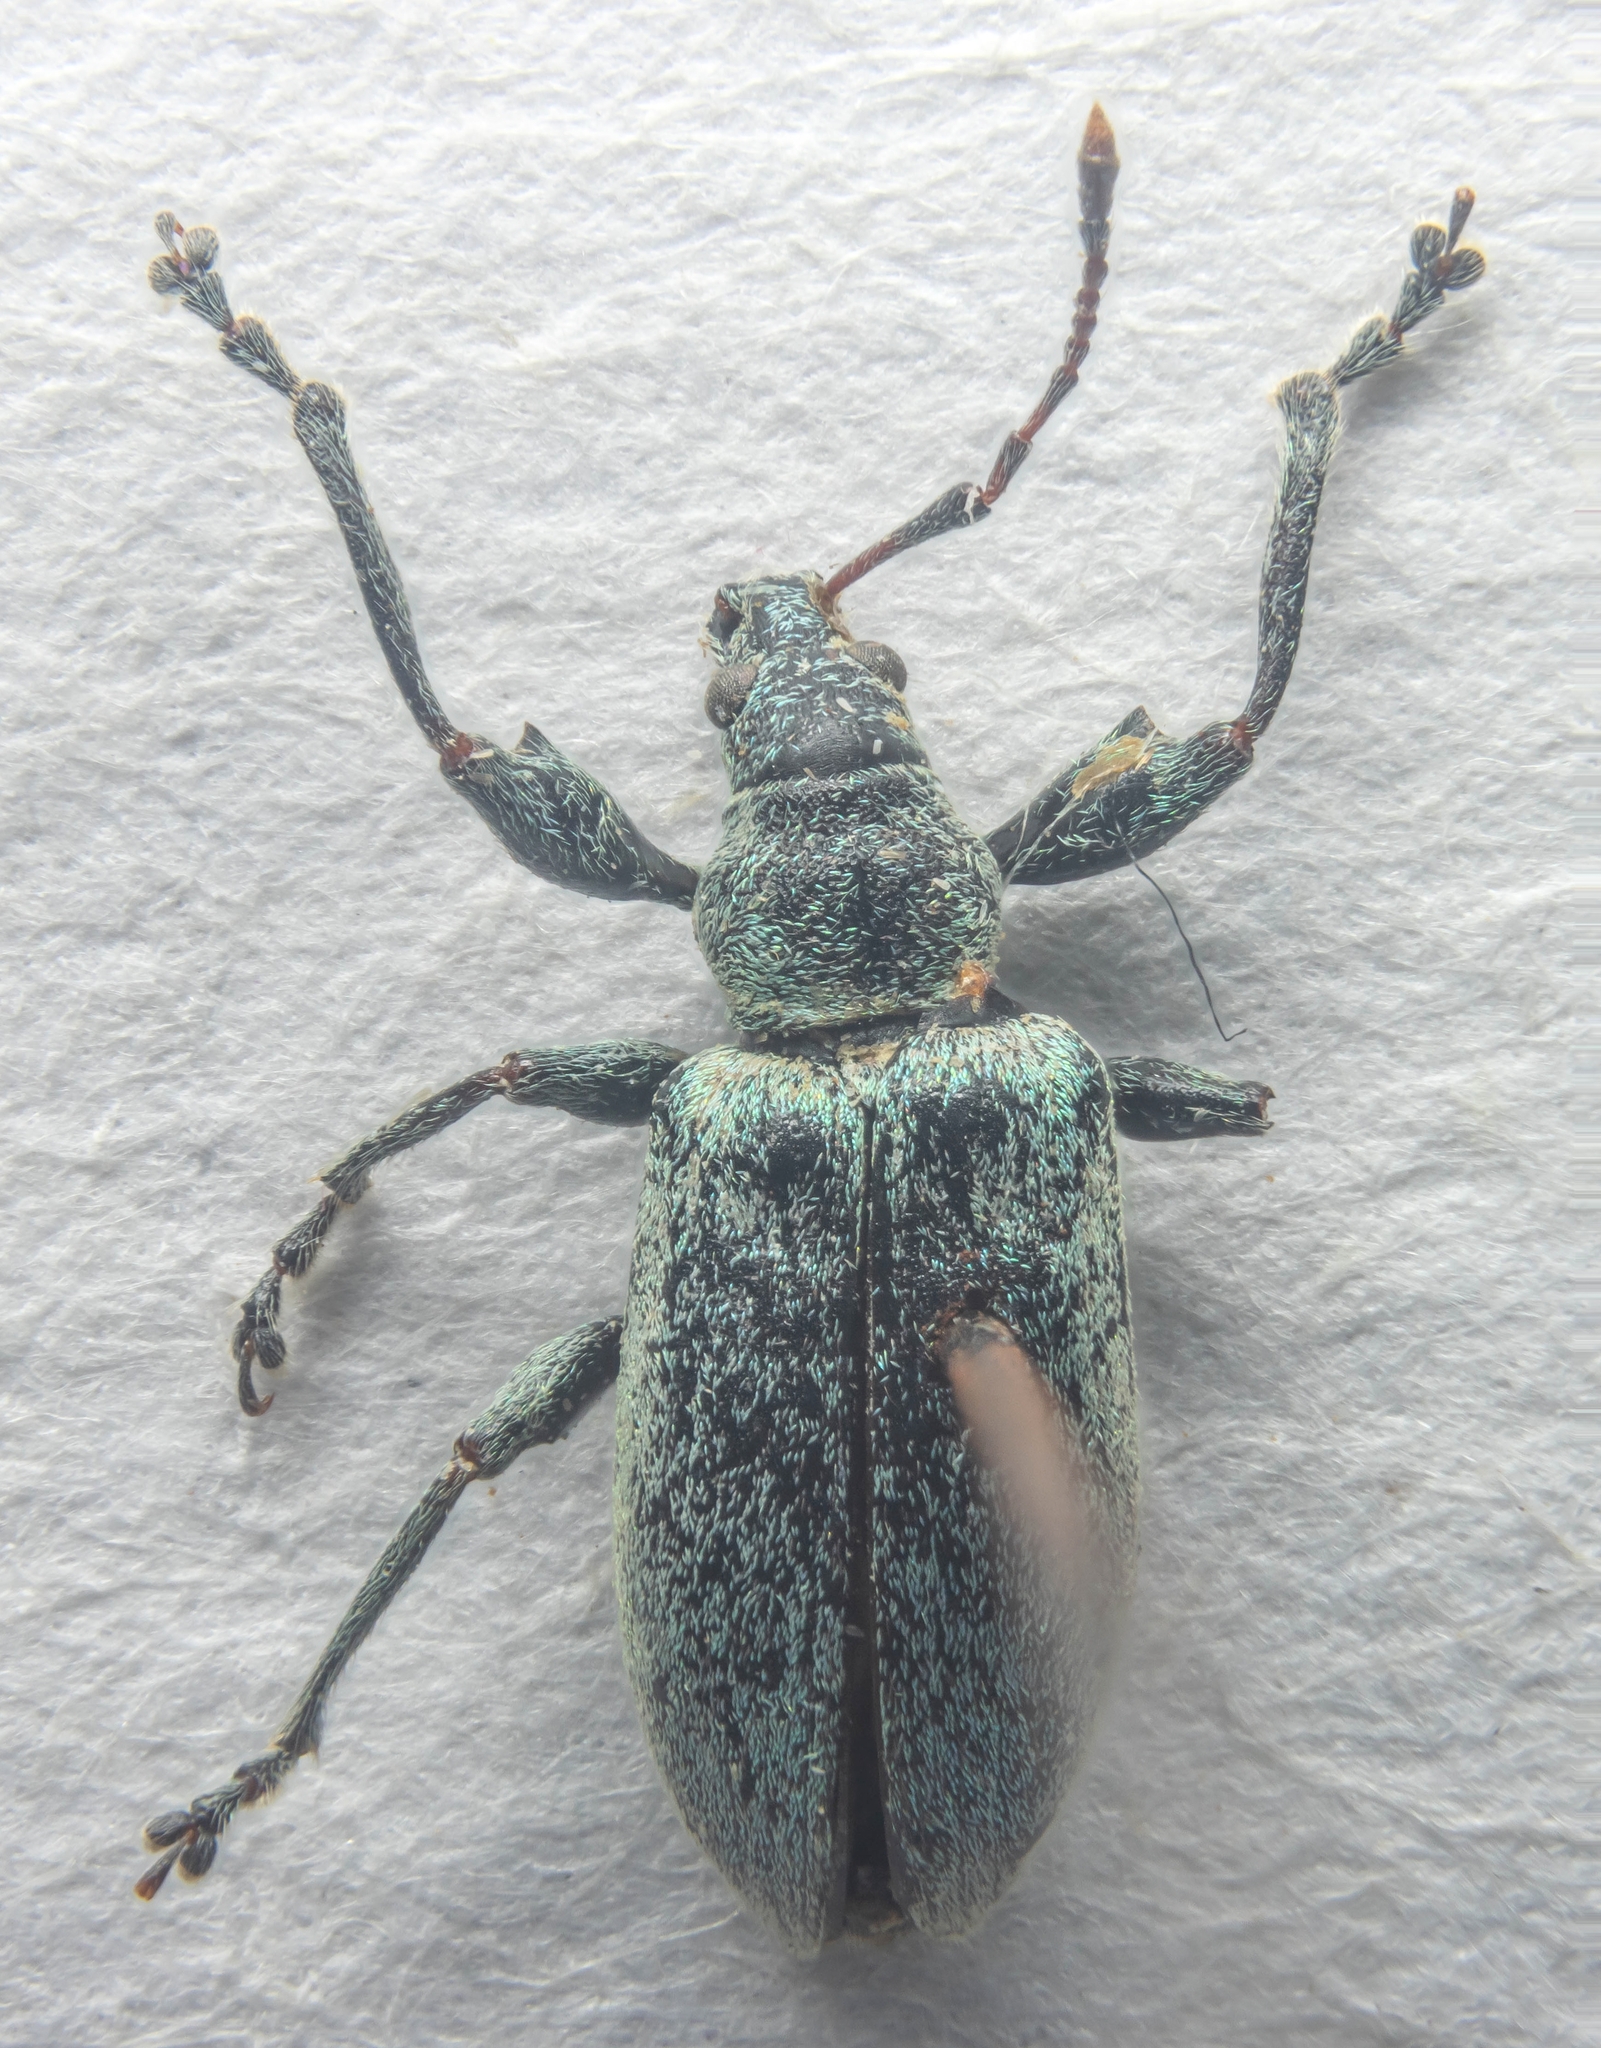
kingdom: Animalia
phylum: Arthropoda
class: Insecta
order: Coleoptera
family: Curculionidae
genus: Phyllobius
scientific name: Phyllobius pomaceus
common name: Green nettle weevil
